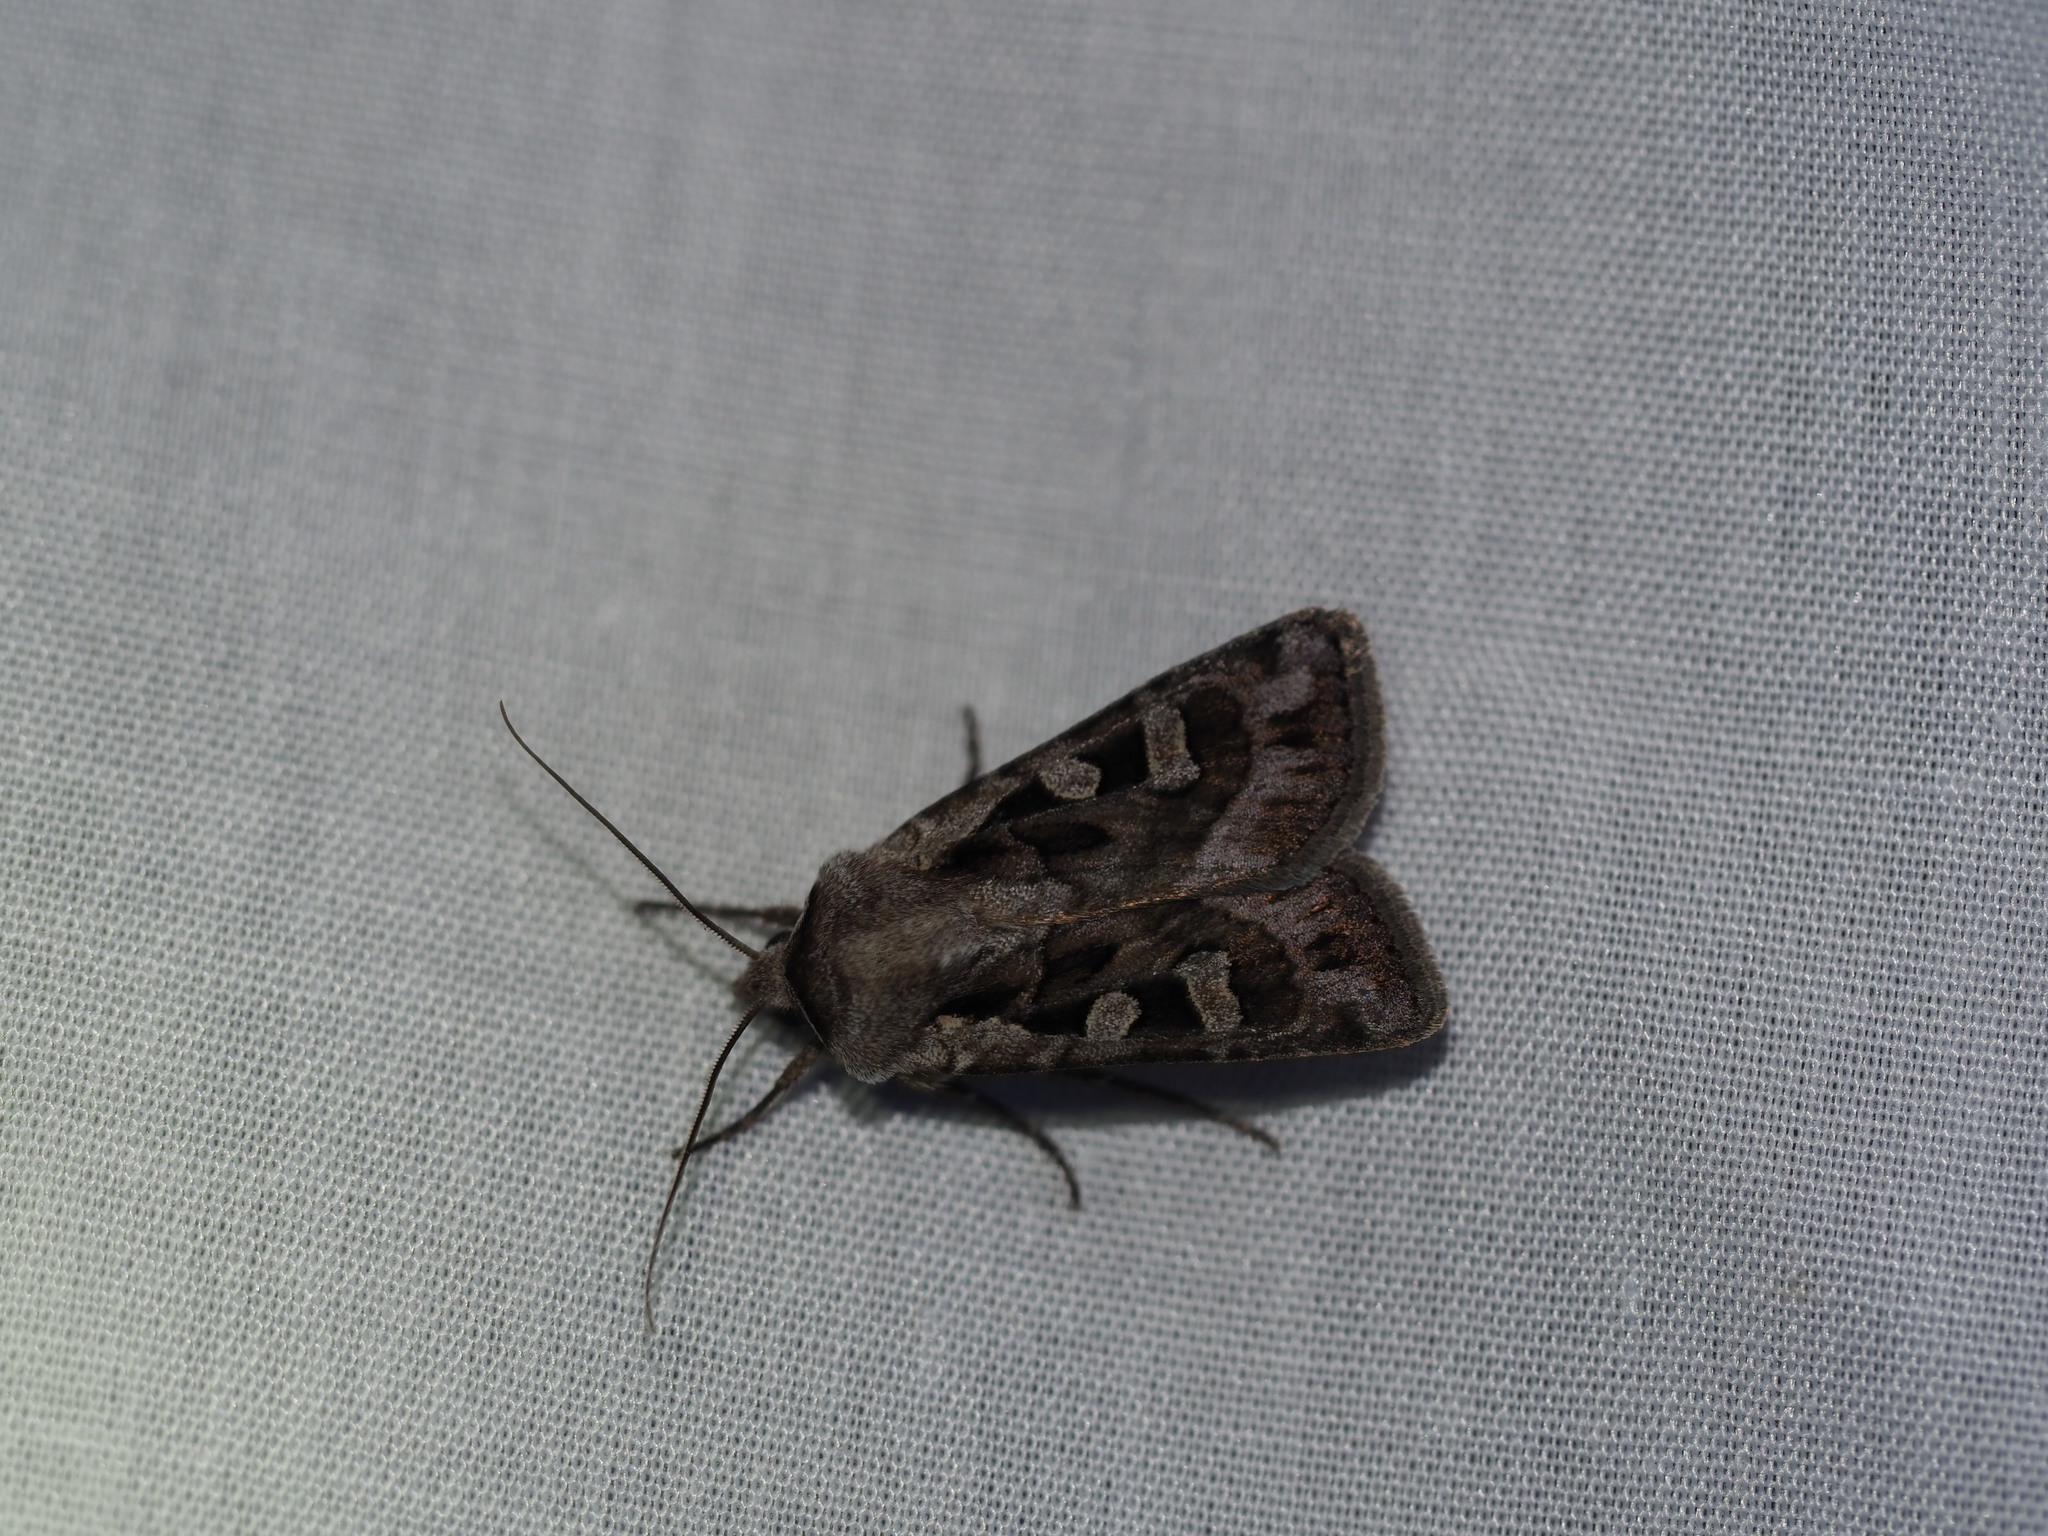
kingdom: Animalia
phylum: Arthropoda
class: Insecta
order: Lepidoptera
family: Noctuidae
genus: Euxoa
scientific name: Euxoa servita
